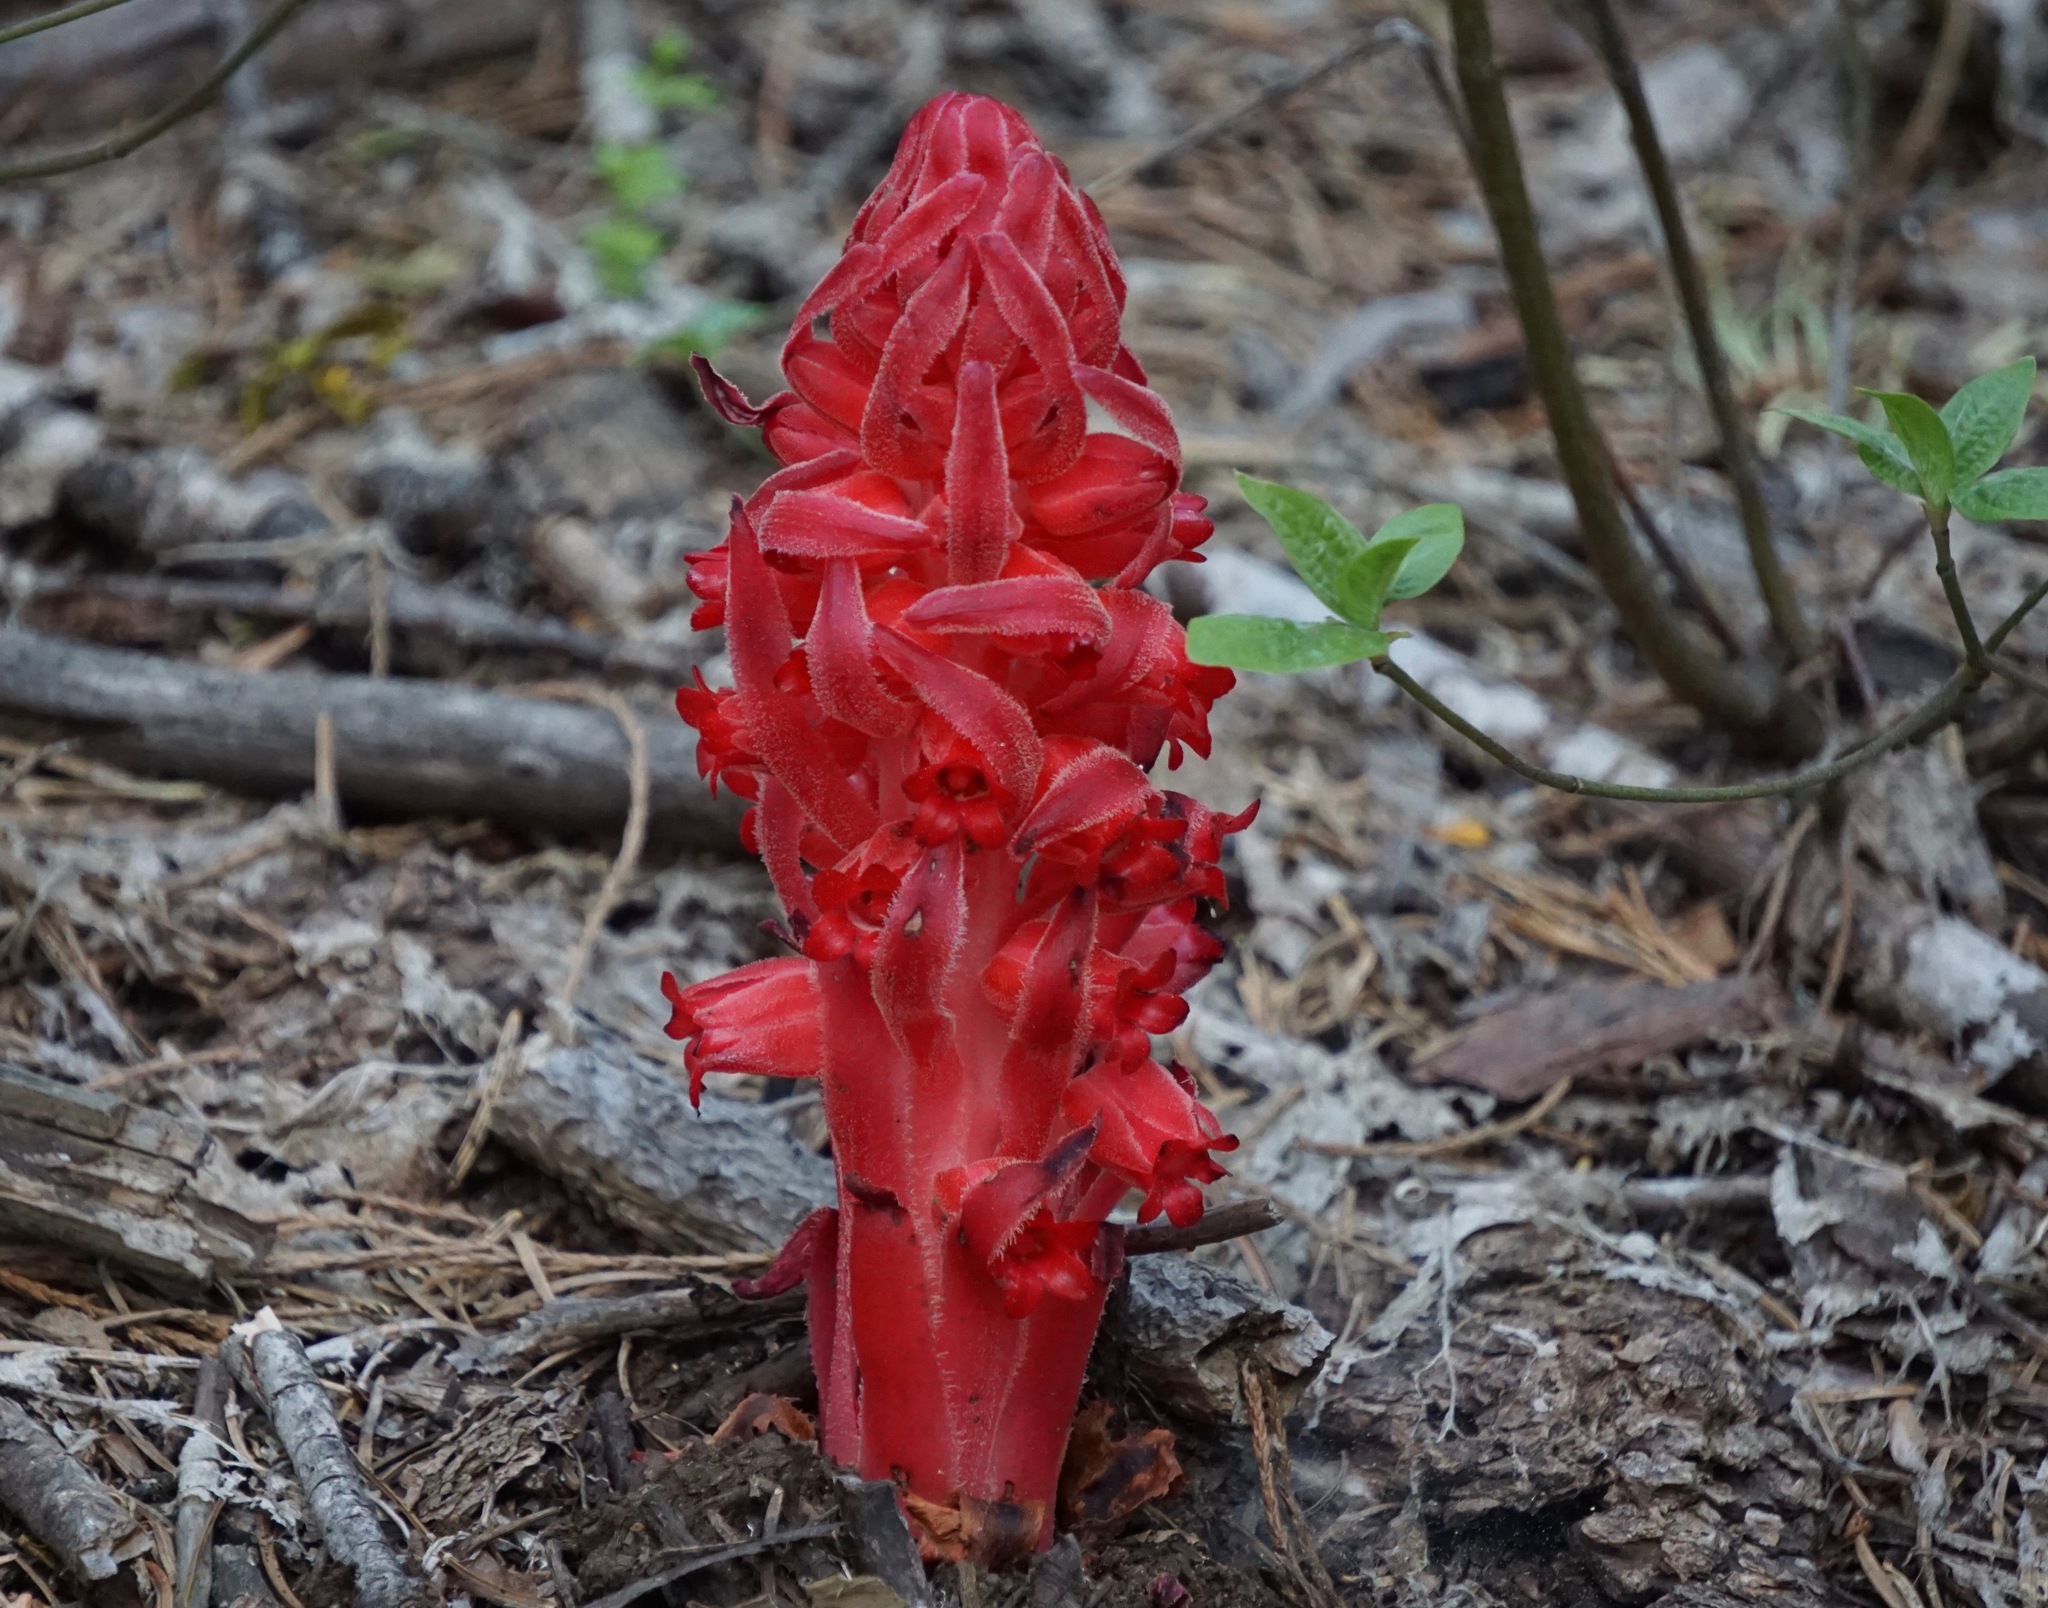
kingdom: Plantae
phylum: Tracheophyta
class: Magnoliopsida
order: Ericales
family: Ericaceae
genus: Sarcodes
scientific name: Sarcodes sanguinea
